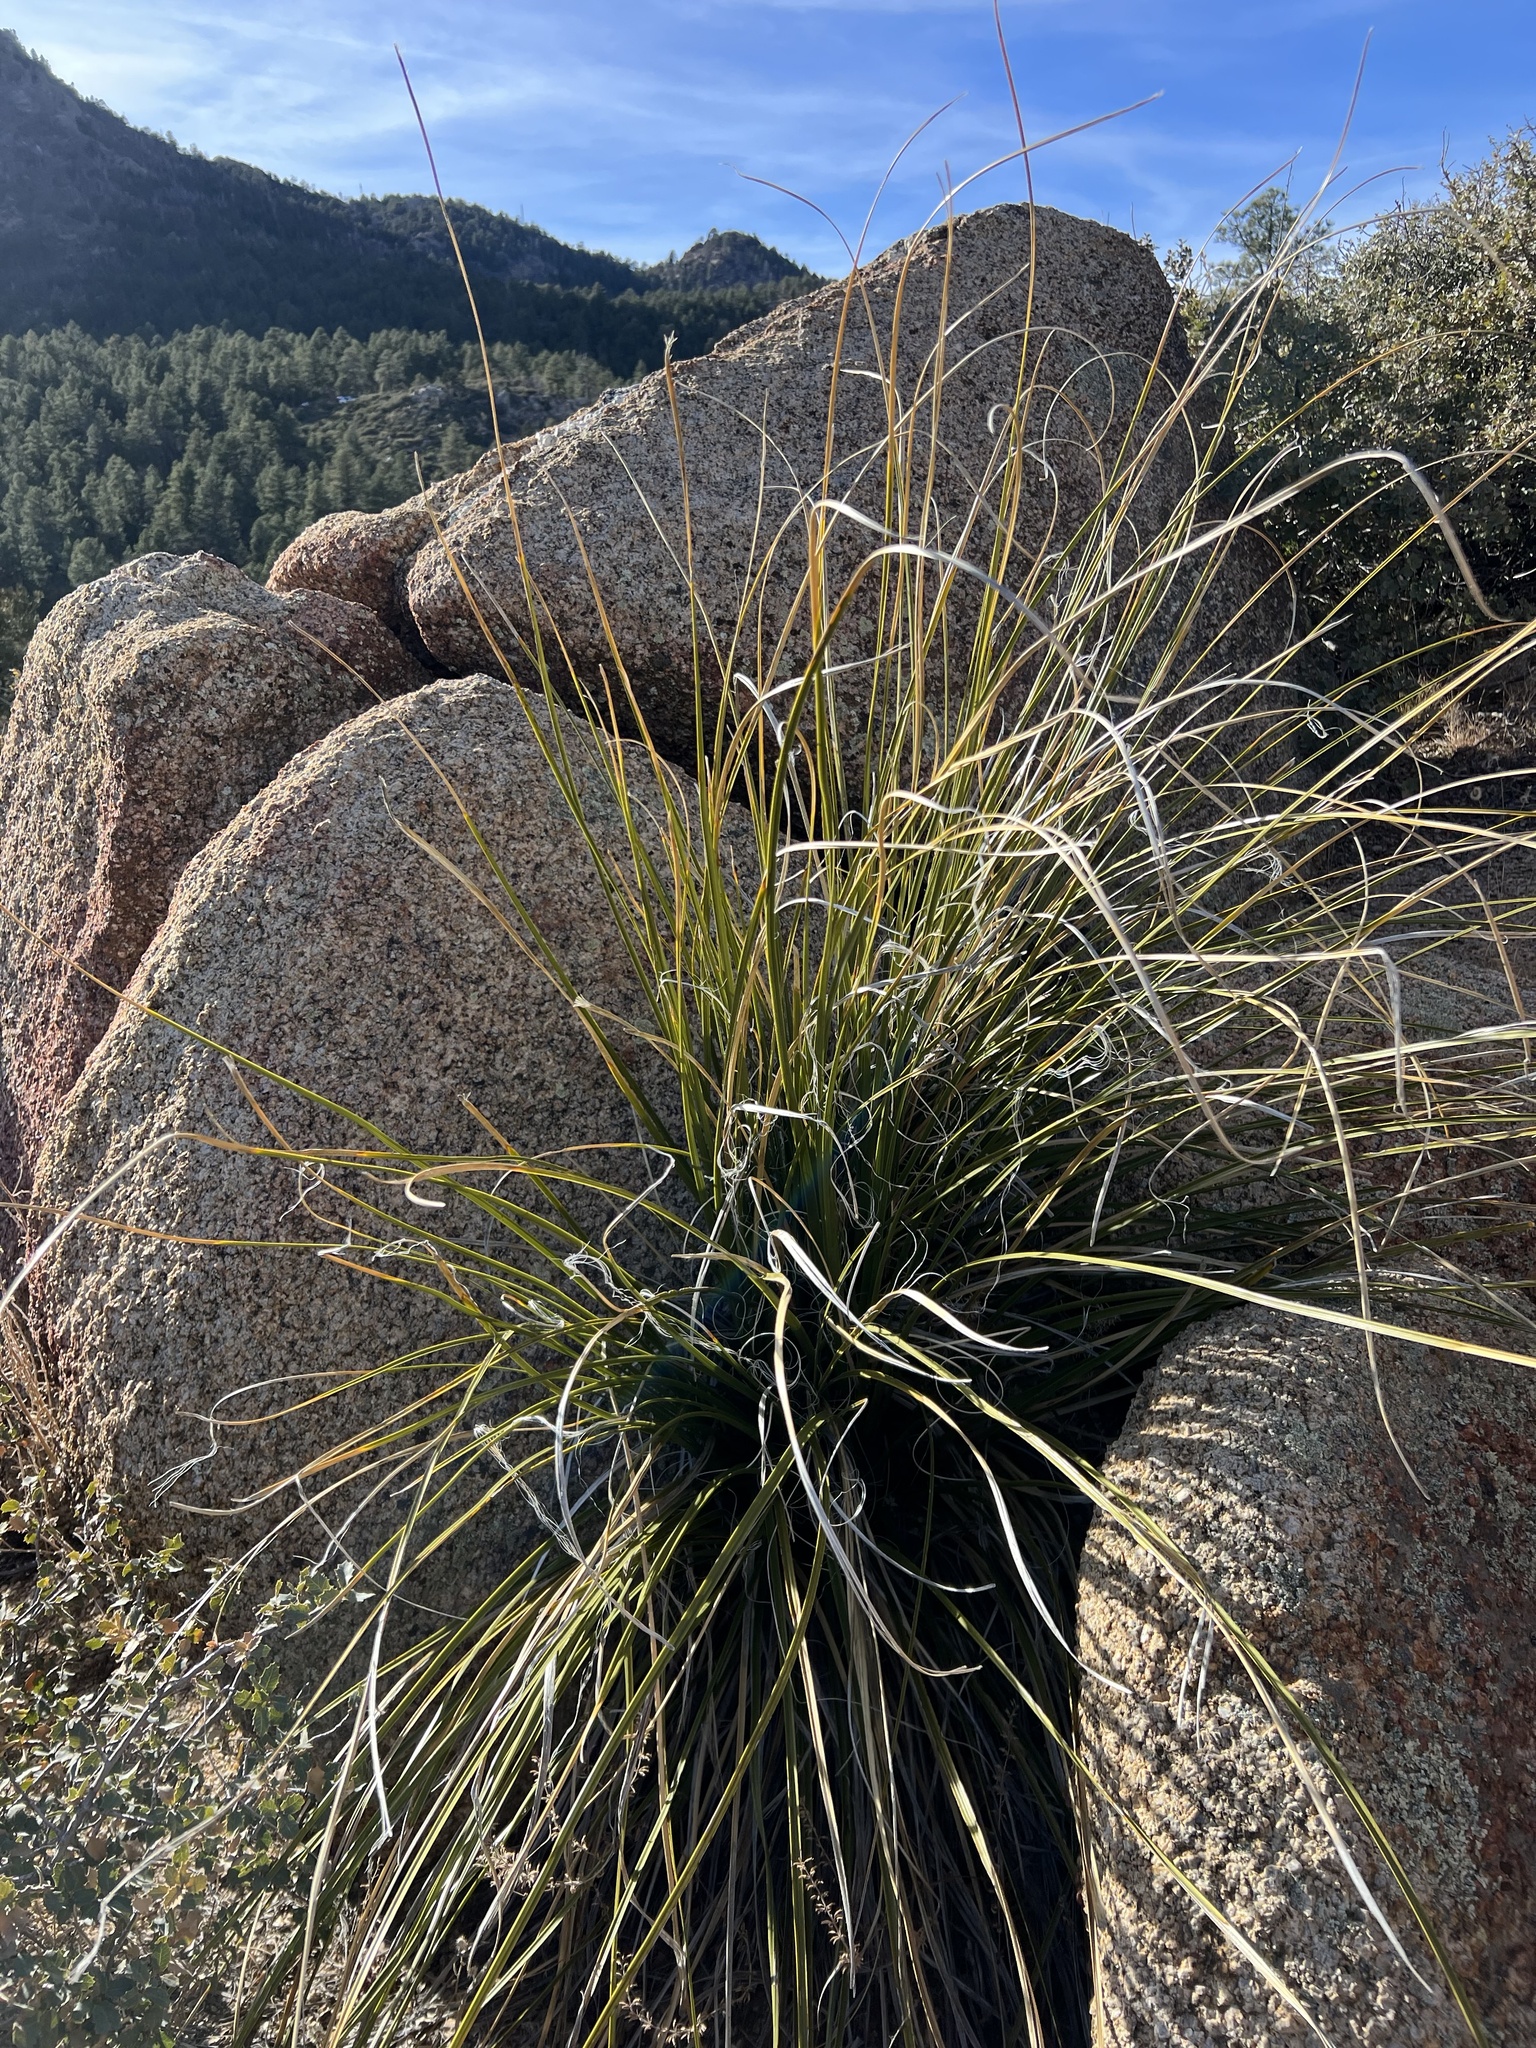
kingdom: Plantae
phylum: Tracheophyta
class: Liliopsida
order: Asparagales
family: Asparagaceae
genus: Nolina
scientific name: Nolina microcarpa
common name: Bear-grass
